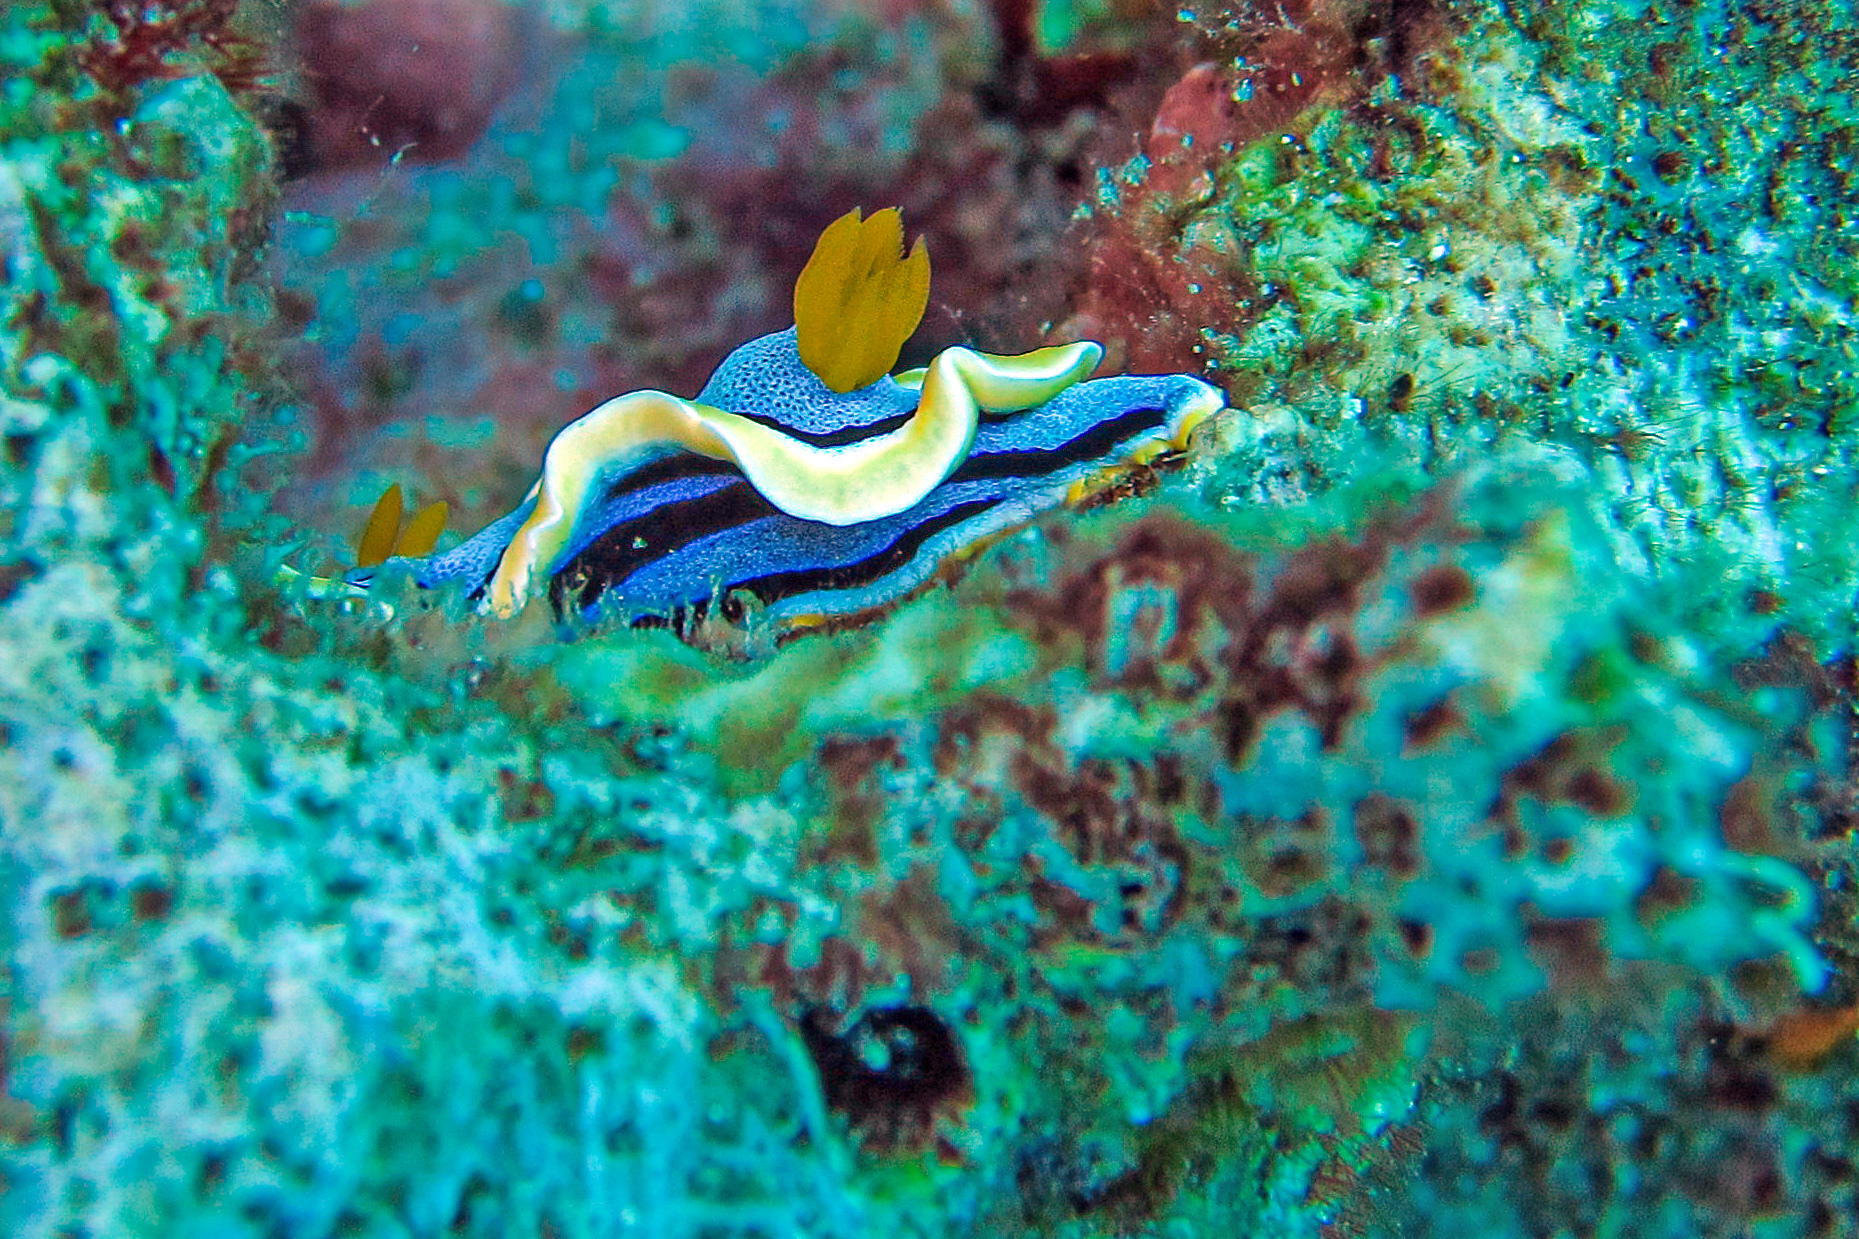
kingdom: Animalia
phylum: Mollusca
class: Gastropoda
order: Nudibranchia
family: Chromodorididae
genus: Chromodoris
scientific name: Chromodoris annae
